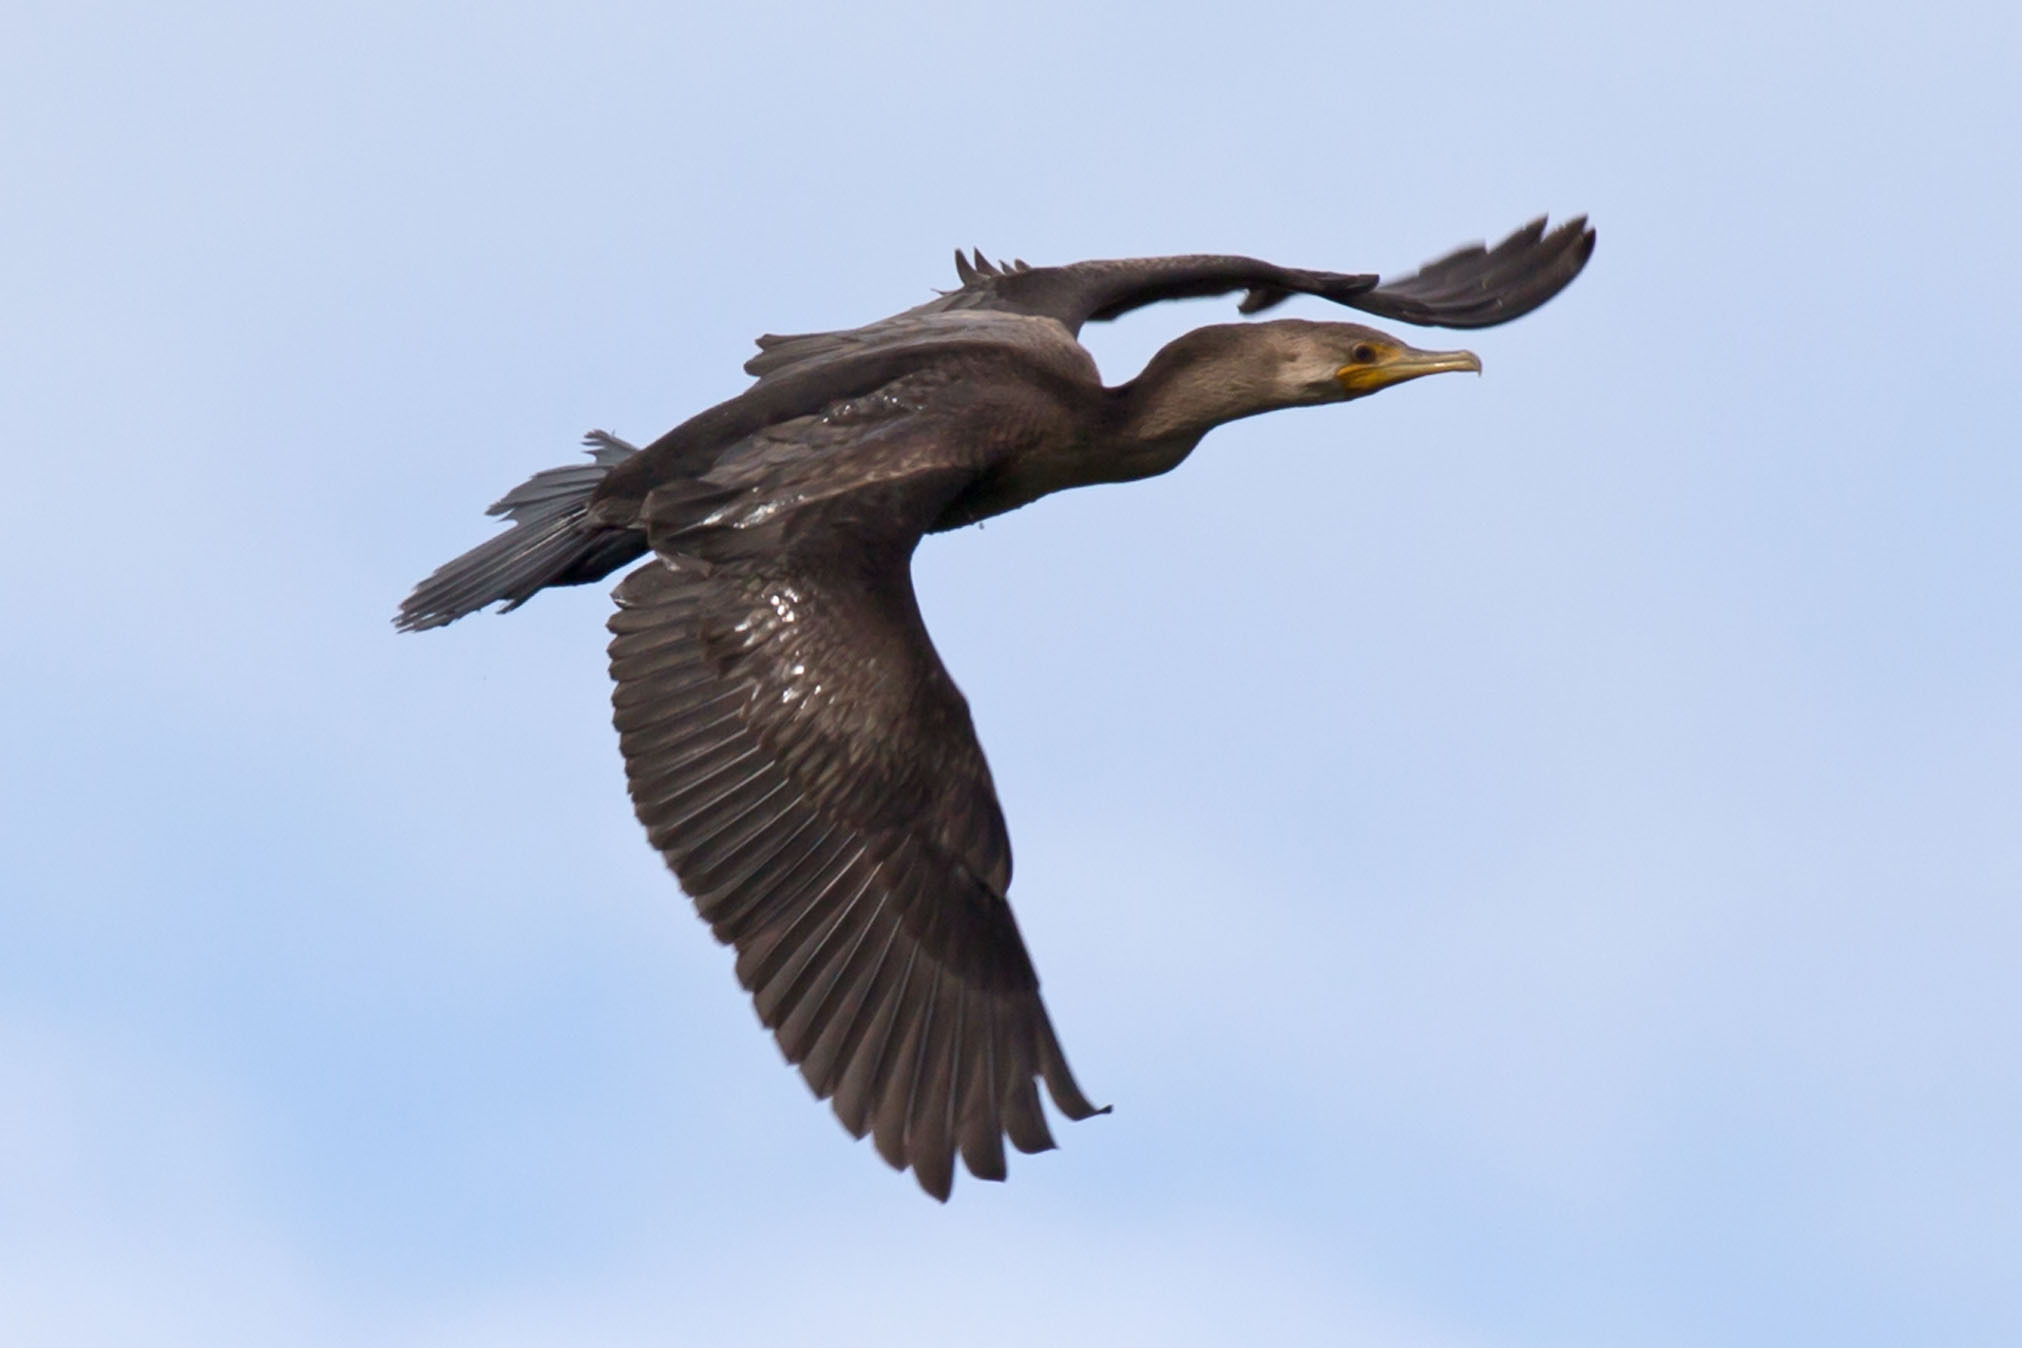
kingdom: Animalia
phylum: Chordata
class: Aves
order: Suliformes
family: Phalacrocoracidae
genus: Phalacrocorax
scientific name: Phalacrocorax auritus
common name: Double-crested cormorant
